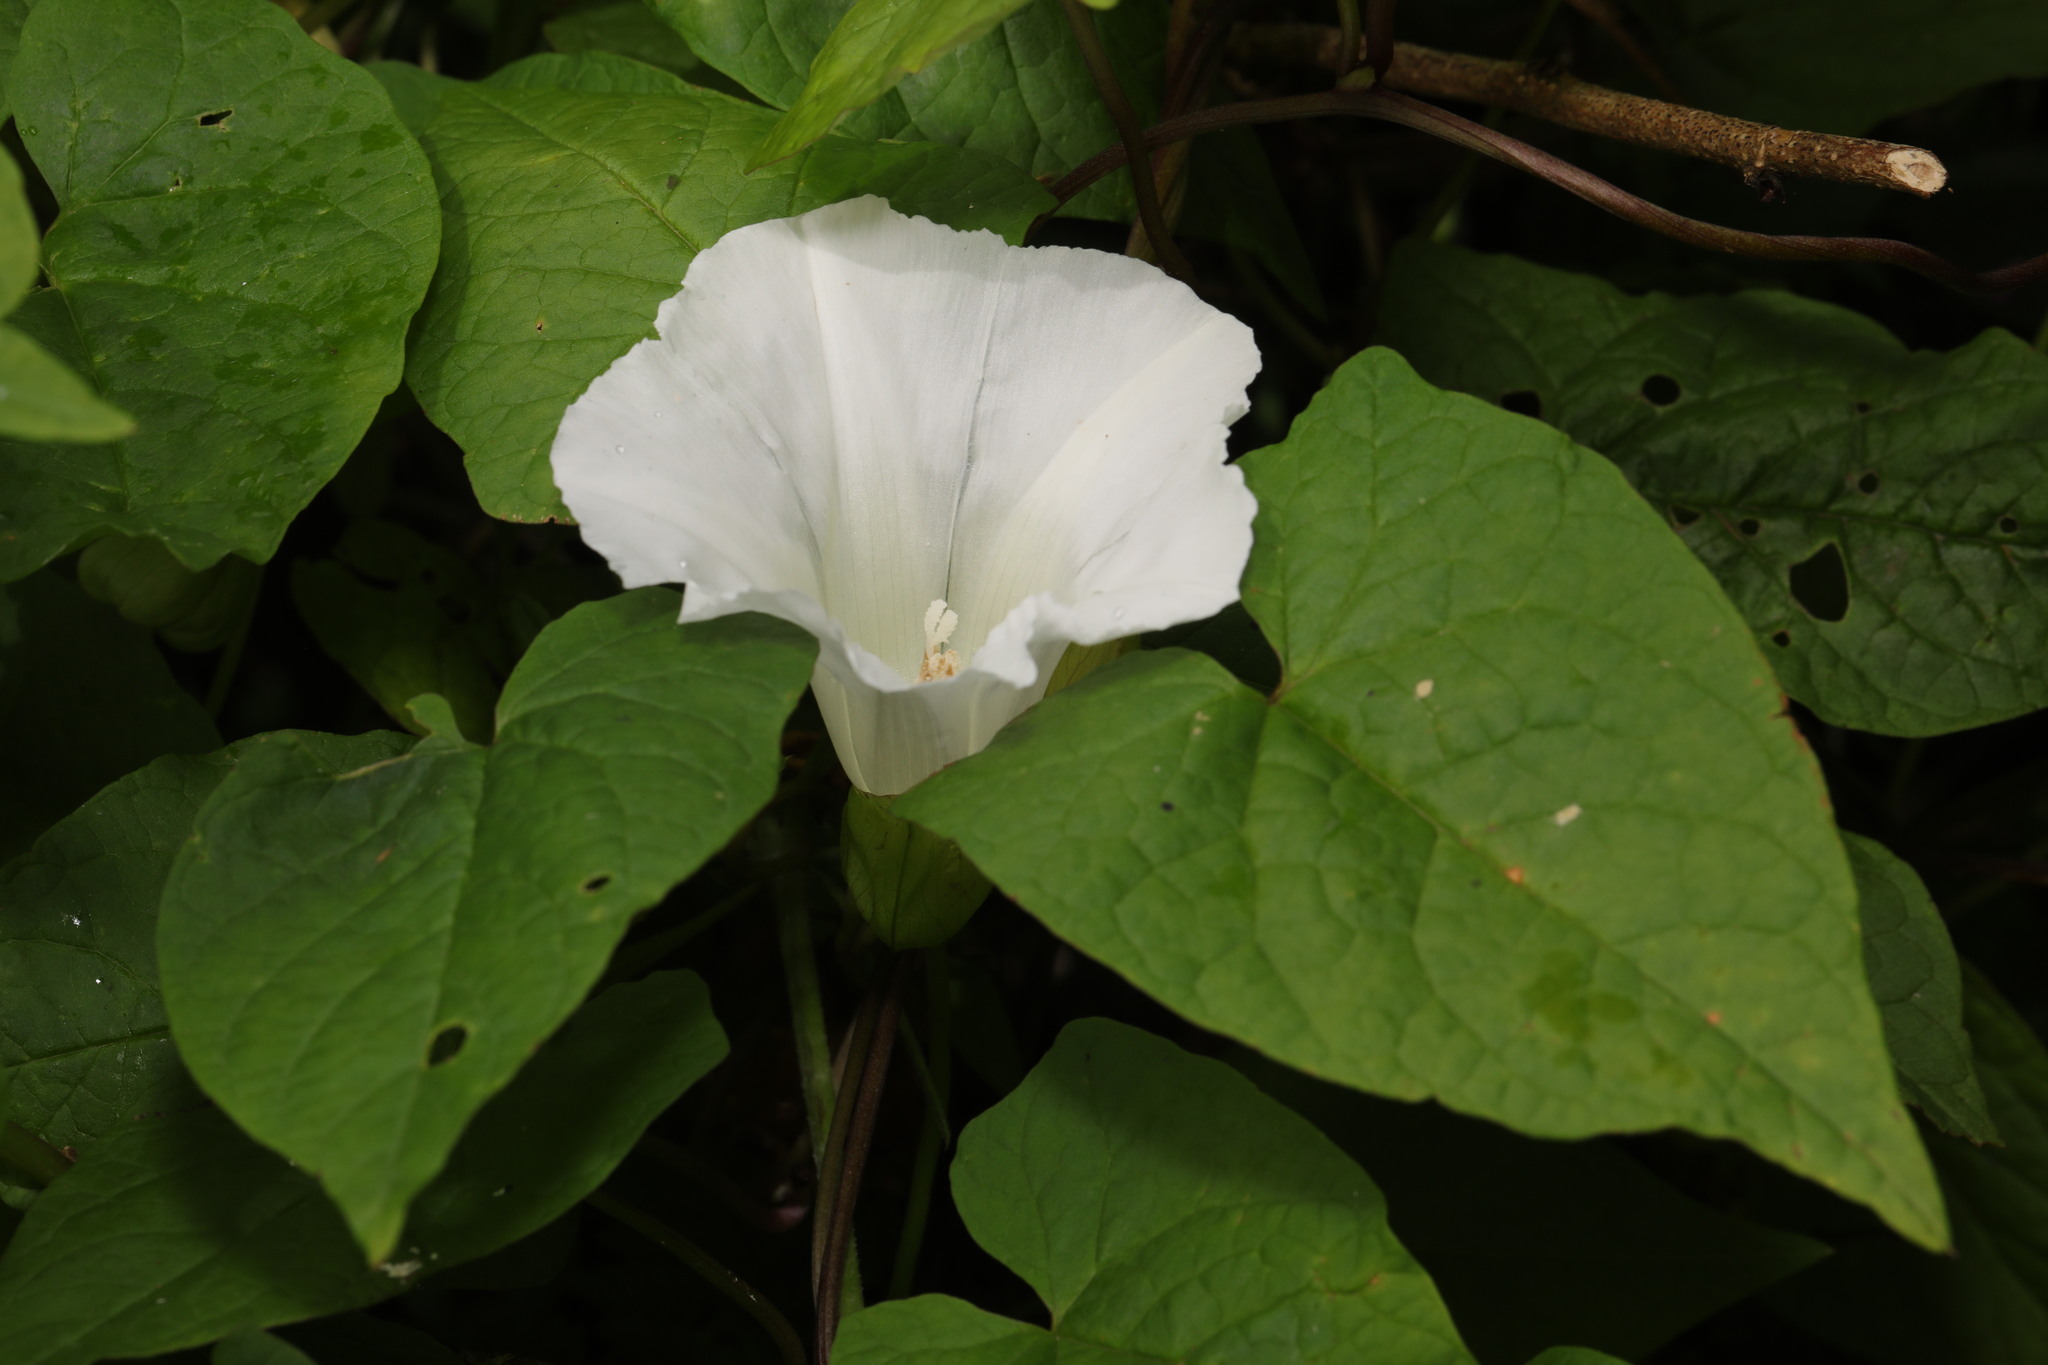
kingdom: Plantae
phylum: Tracheophyta
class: Magnoliopsida
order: Solanales
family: Convolvulaceae
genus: Calystegia
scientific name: Calystegia silvatica
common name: Large bindweed
